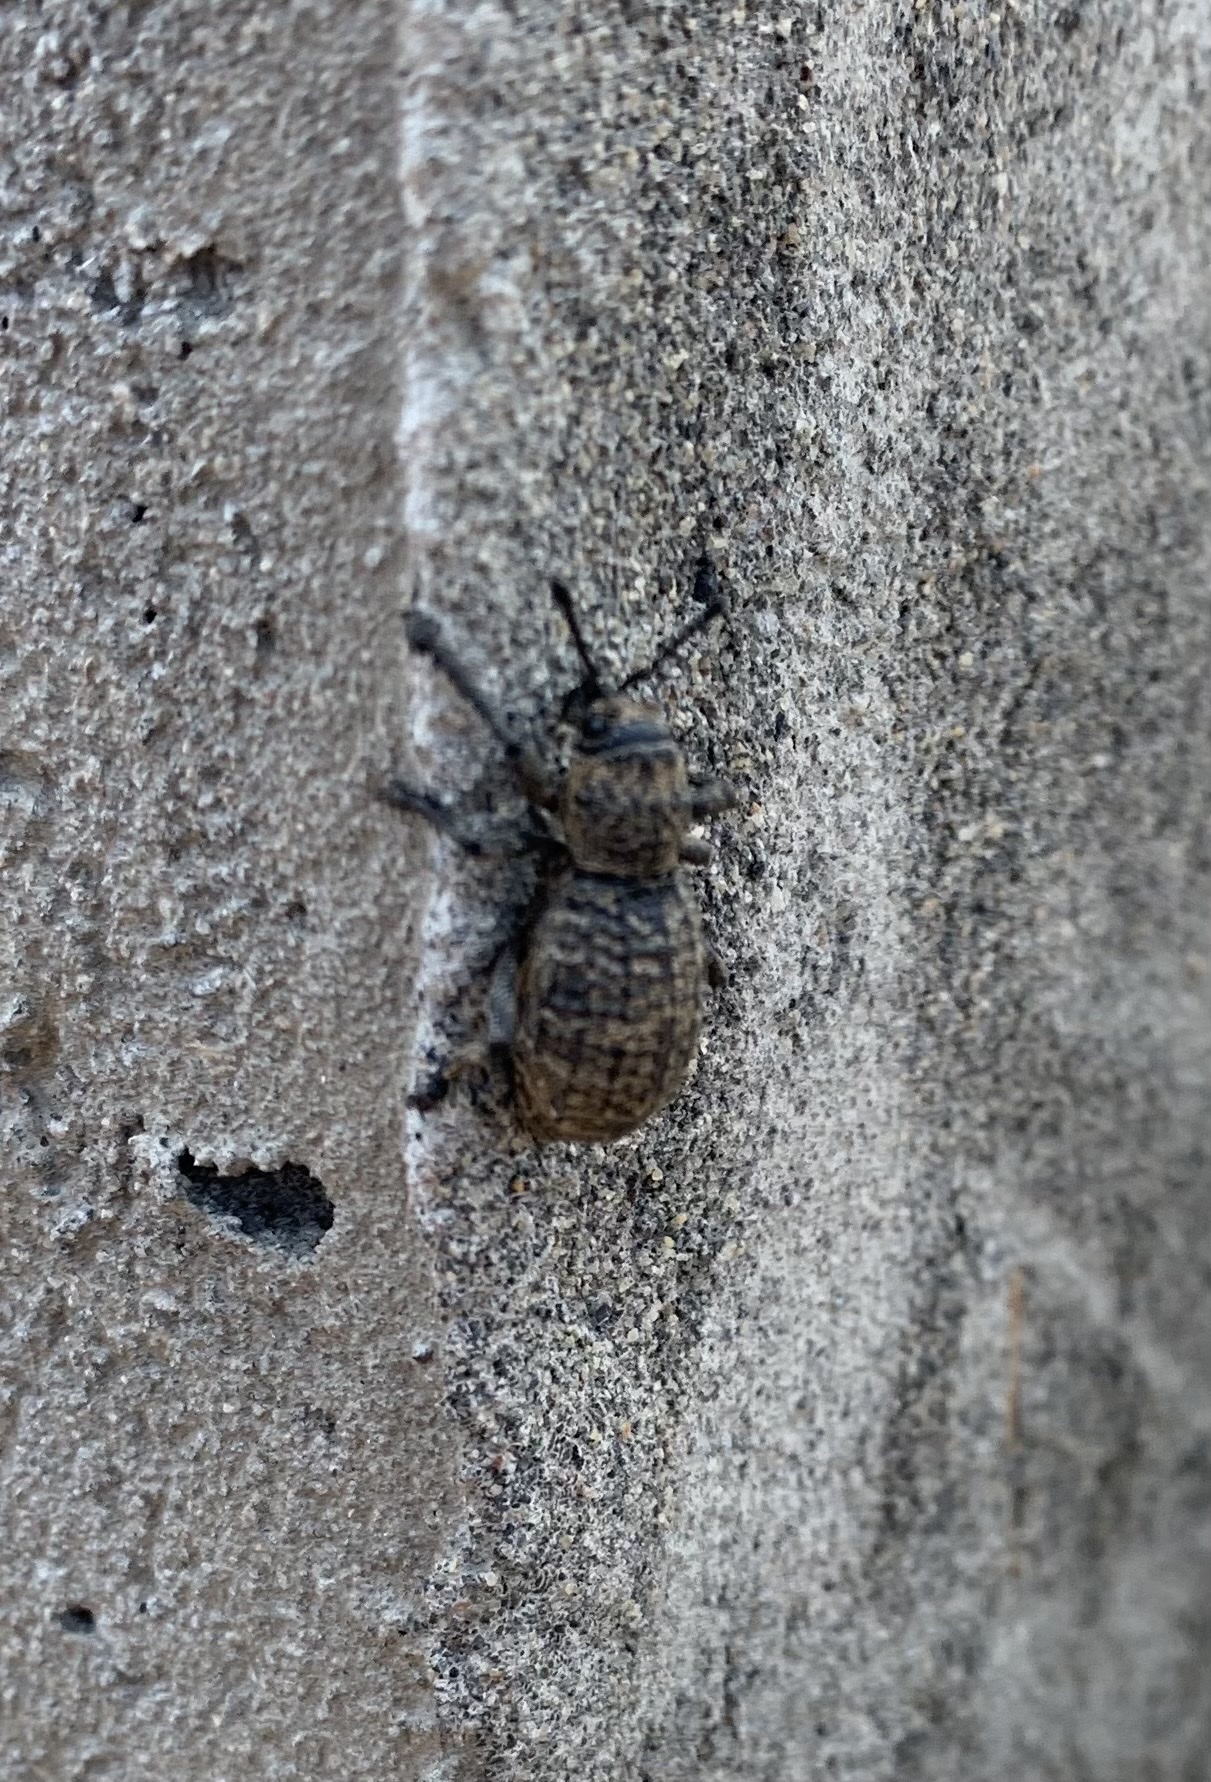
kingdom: Animalia
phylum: Arthropoda
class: Insecta
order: Coleoptera
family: Curculionidae
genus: Aegorhinus
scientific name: Aegorhinus superciliosus
